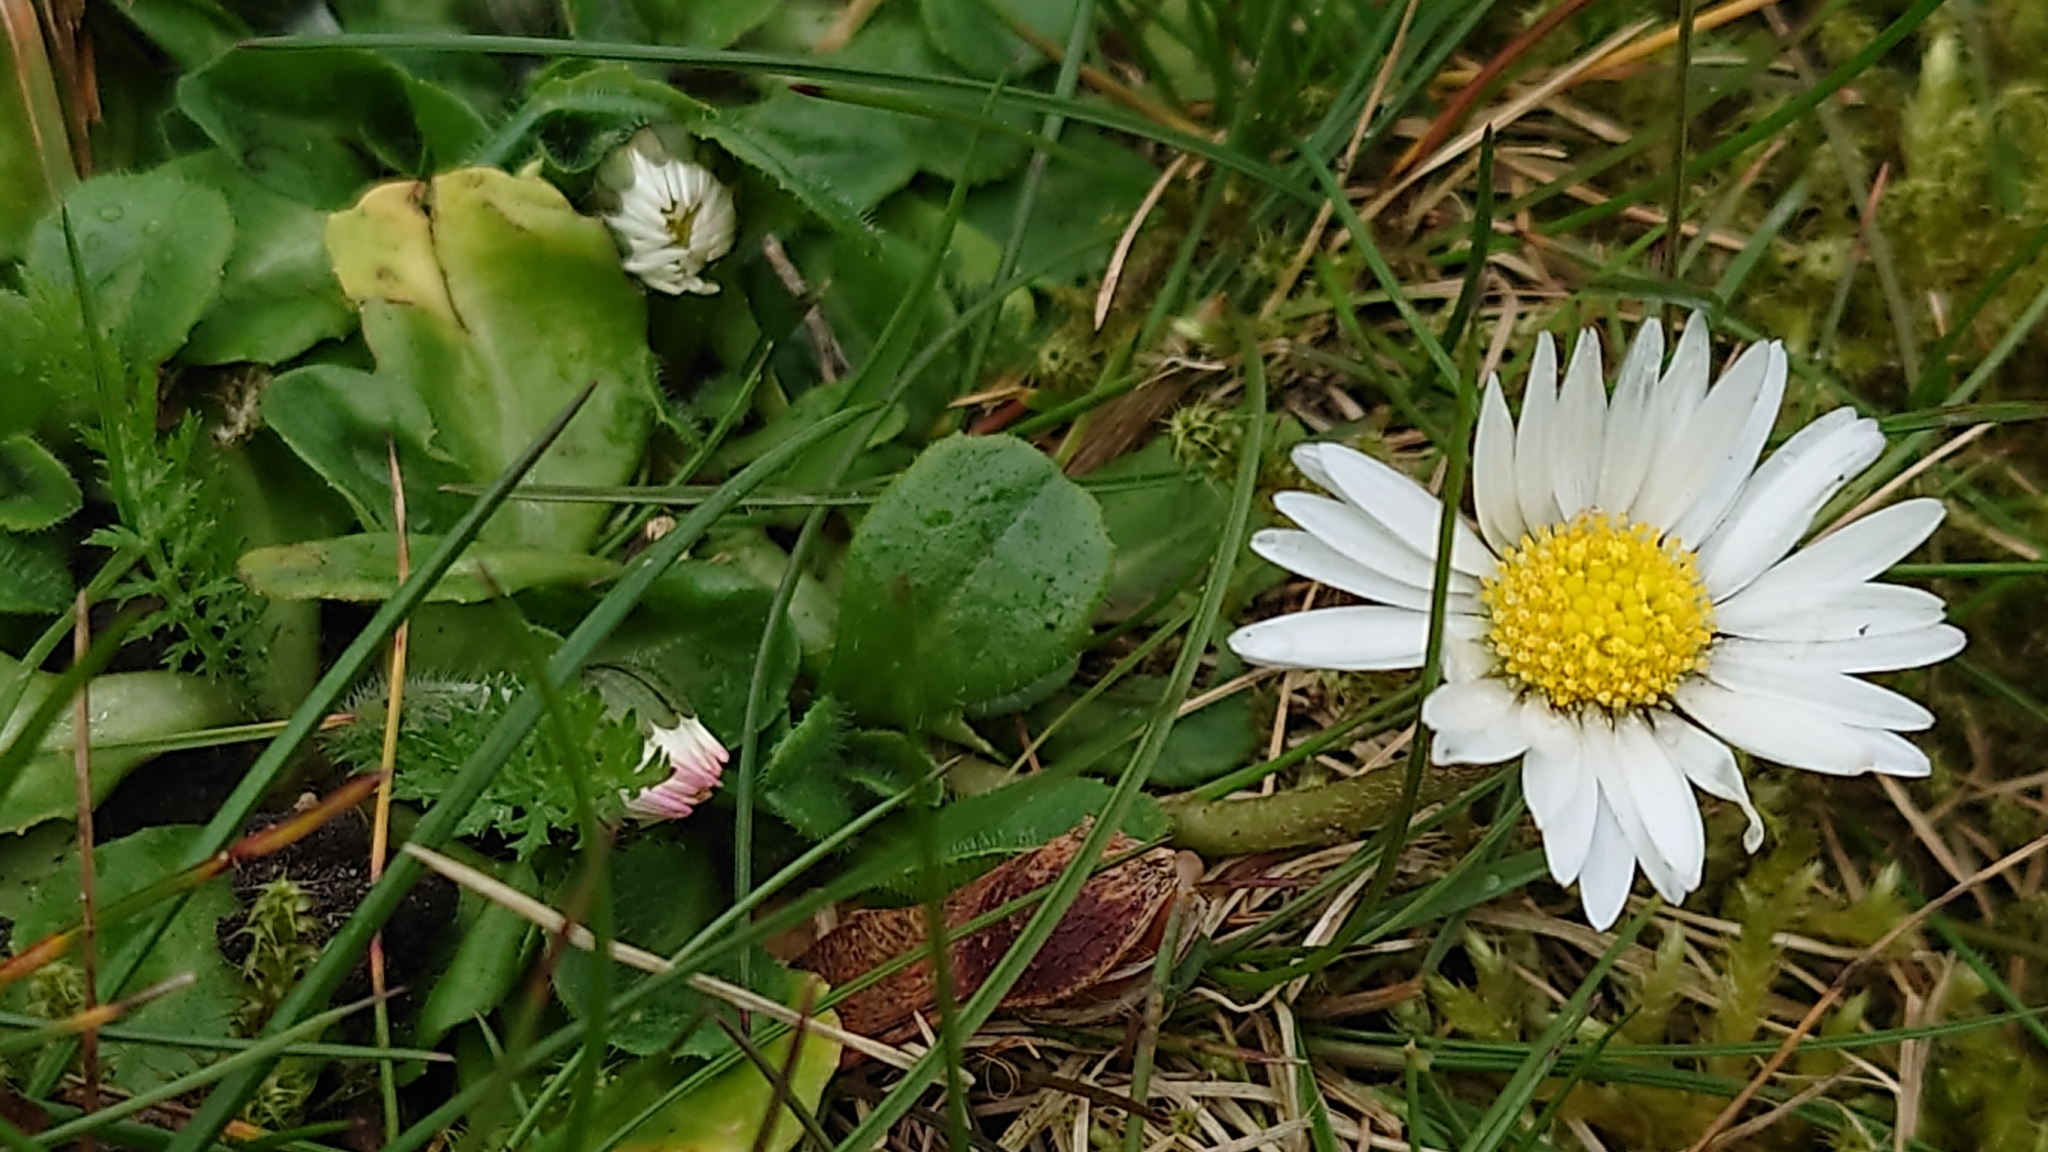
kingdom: Plantae
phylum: Tracheophyta
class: Magnoliopsida
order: Asterales
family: Asteraceae
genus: Bellis
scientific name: Bellis perennis
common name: Lawndaisy
